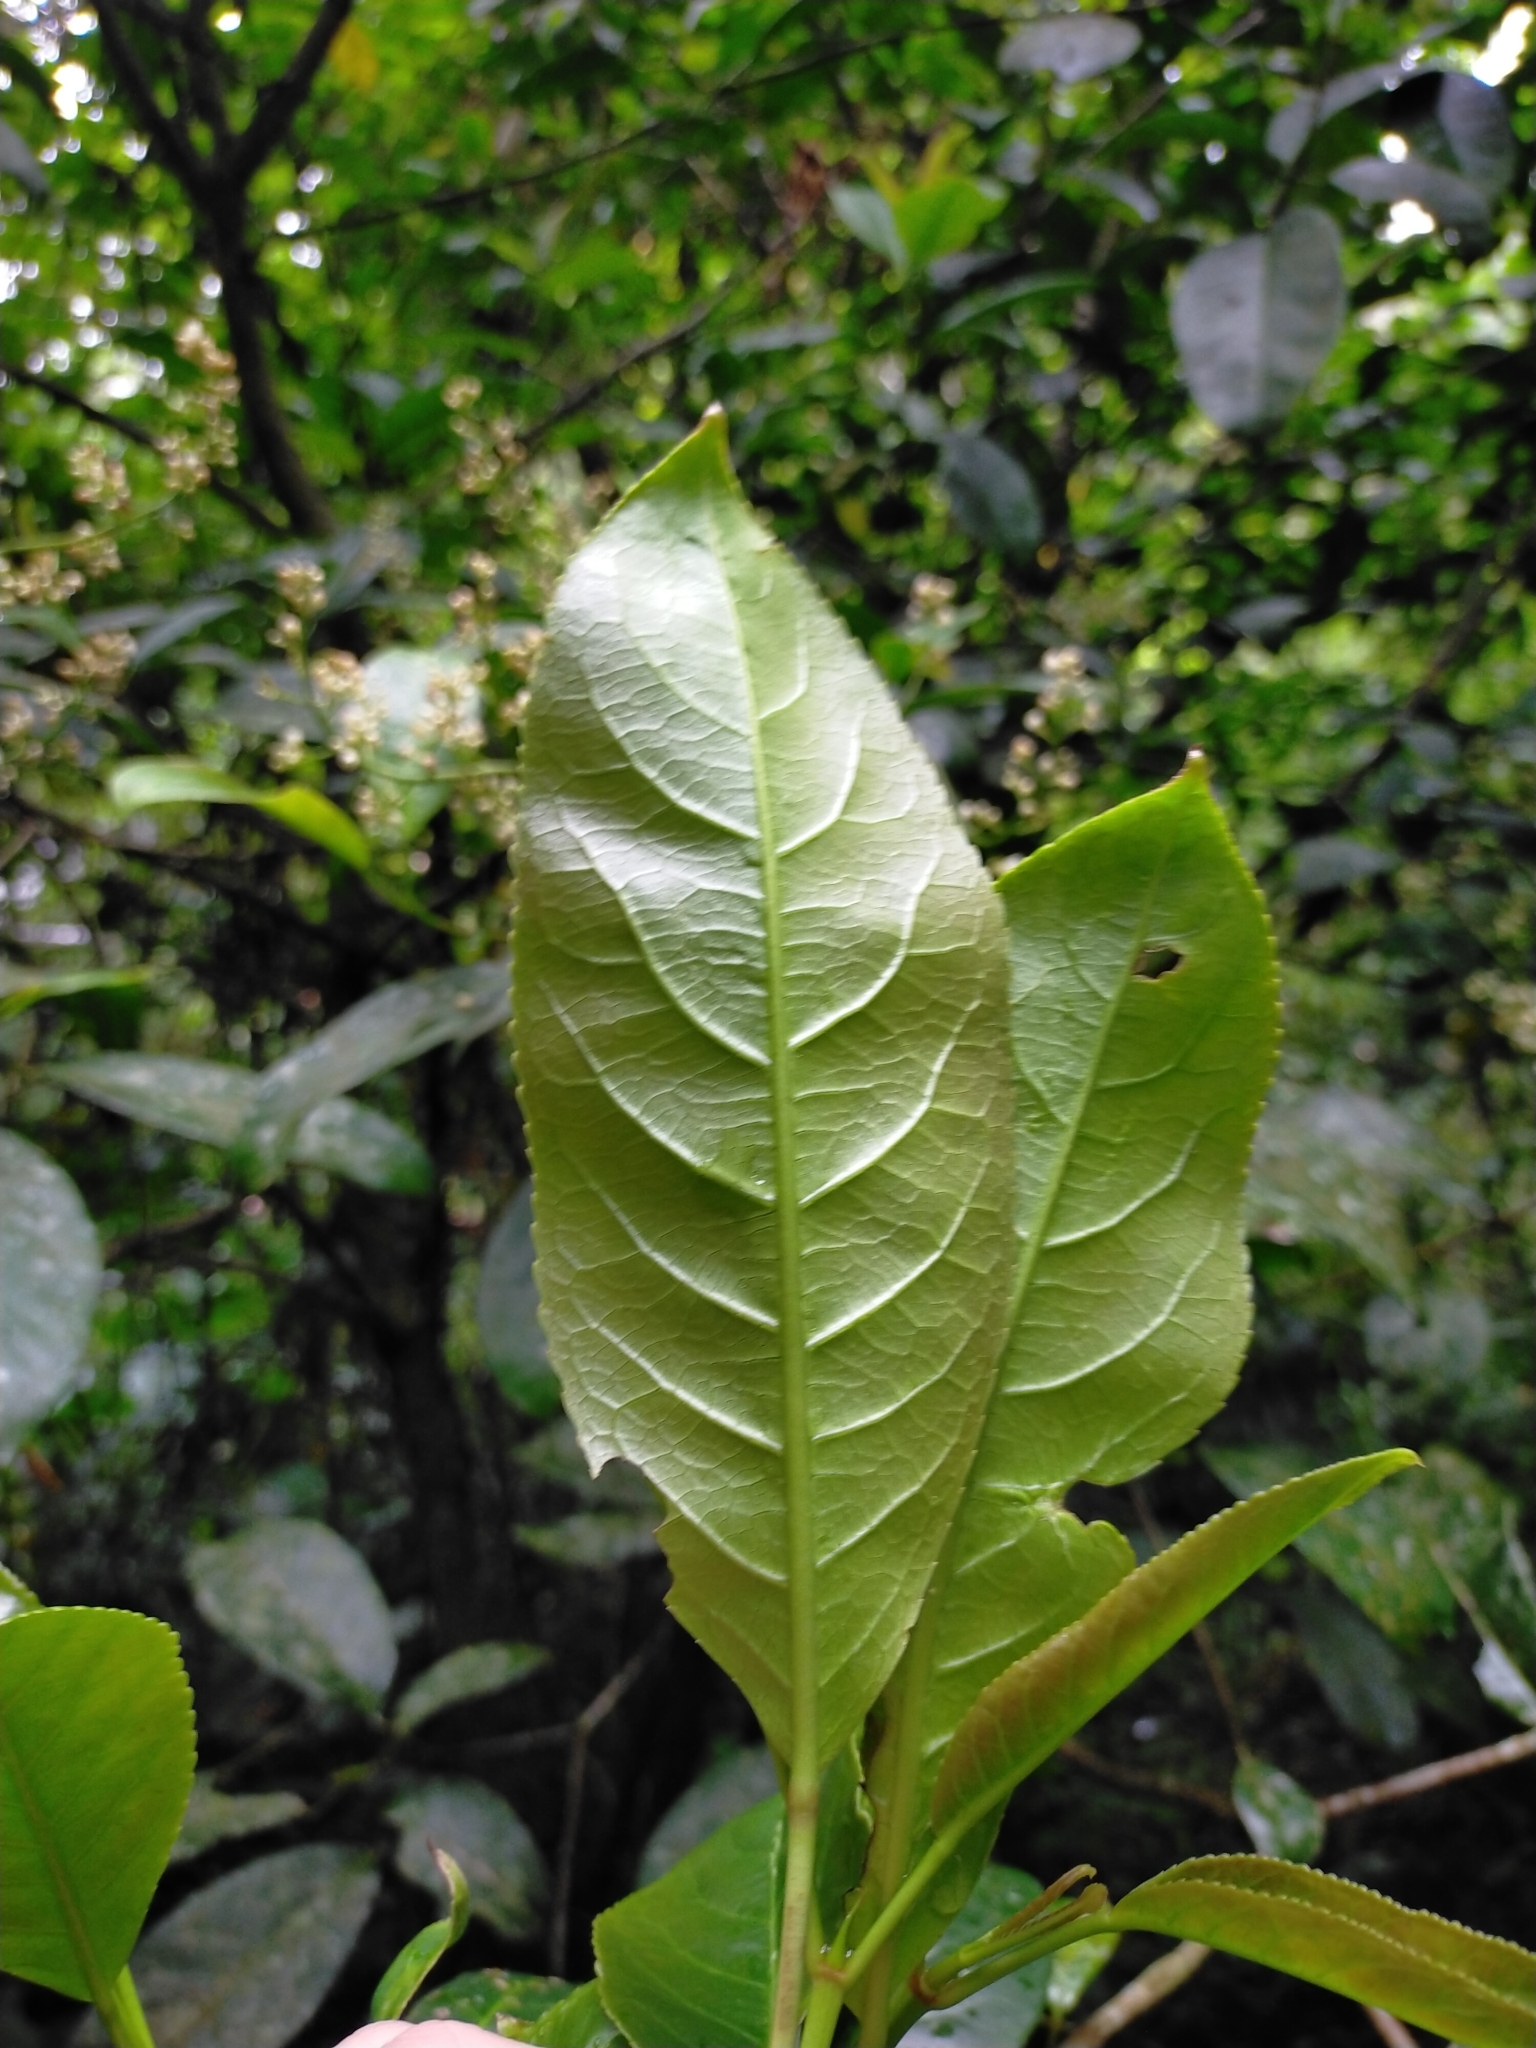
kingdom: Plantae
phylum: Tracheophyta
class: Magnoliopsida
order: Crossosomatales
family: Staphyleaceae
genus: Turpinia
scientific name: Turpinia formosana
